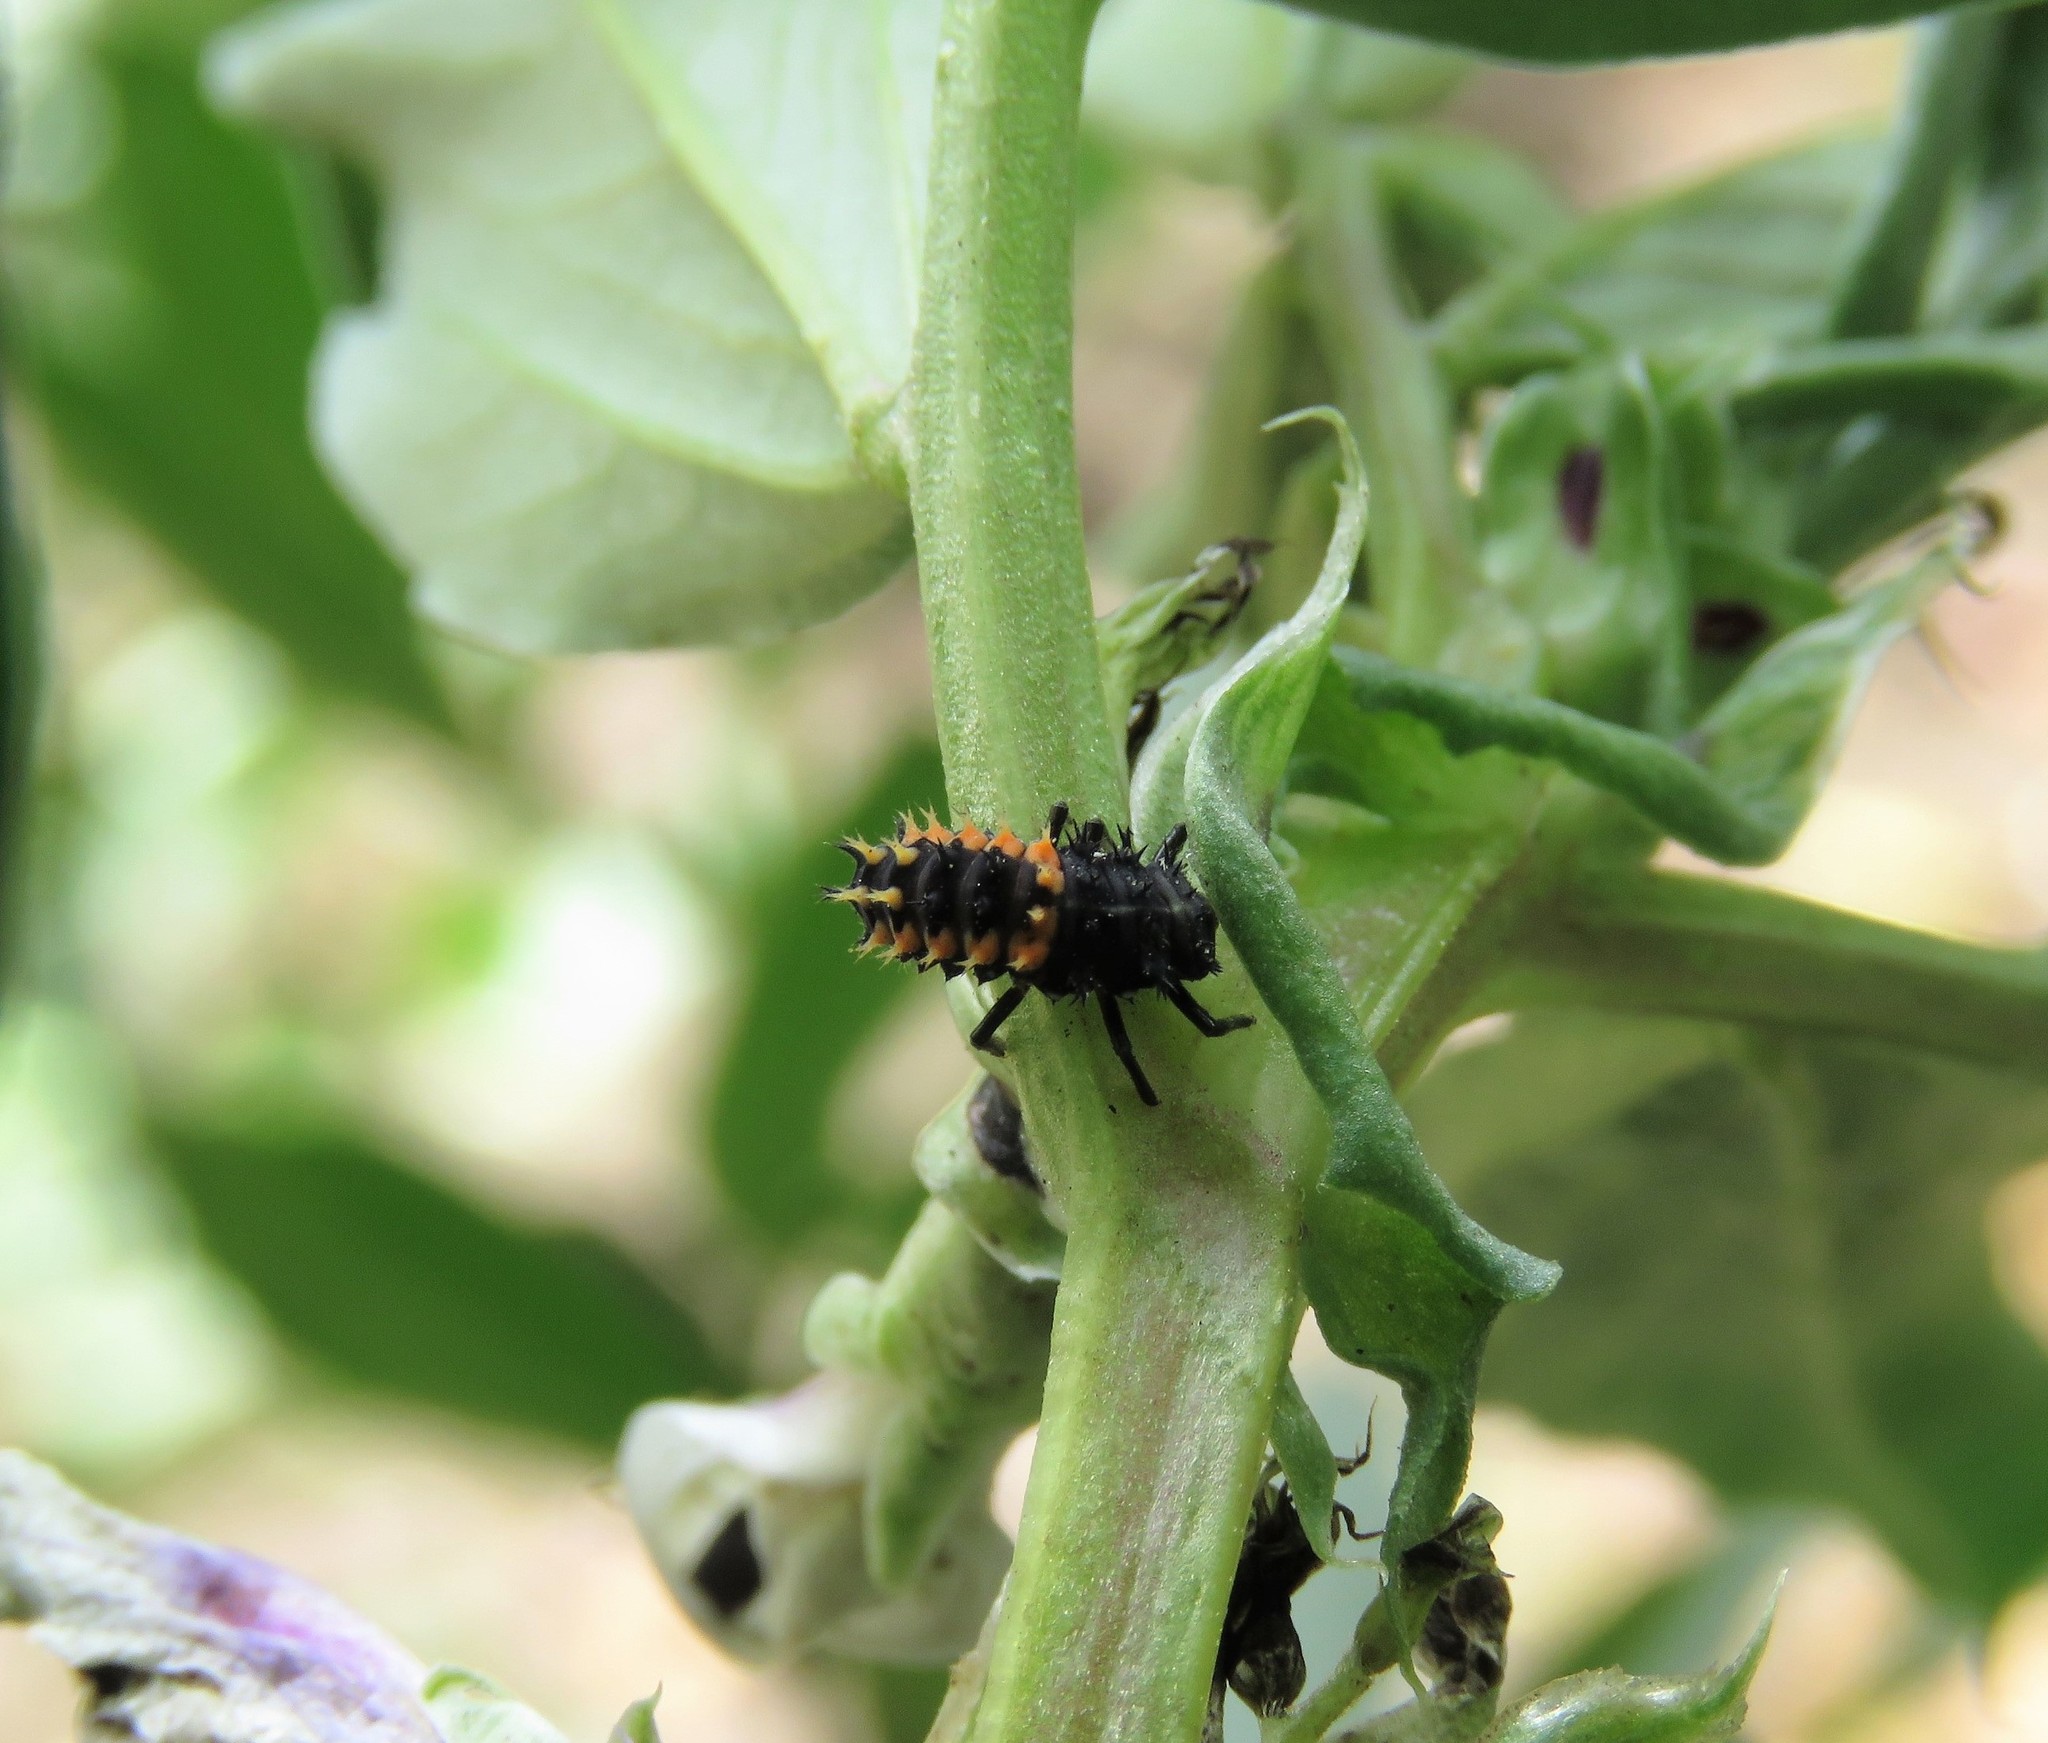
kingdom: Animalia
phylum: Arthropoda
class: Insecta
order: Coleoptera
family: Coccinellidae
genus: Harmonia
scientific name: Harmonia axyridis
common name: Harlequin ladybird
